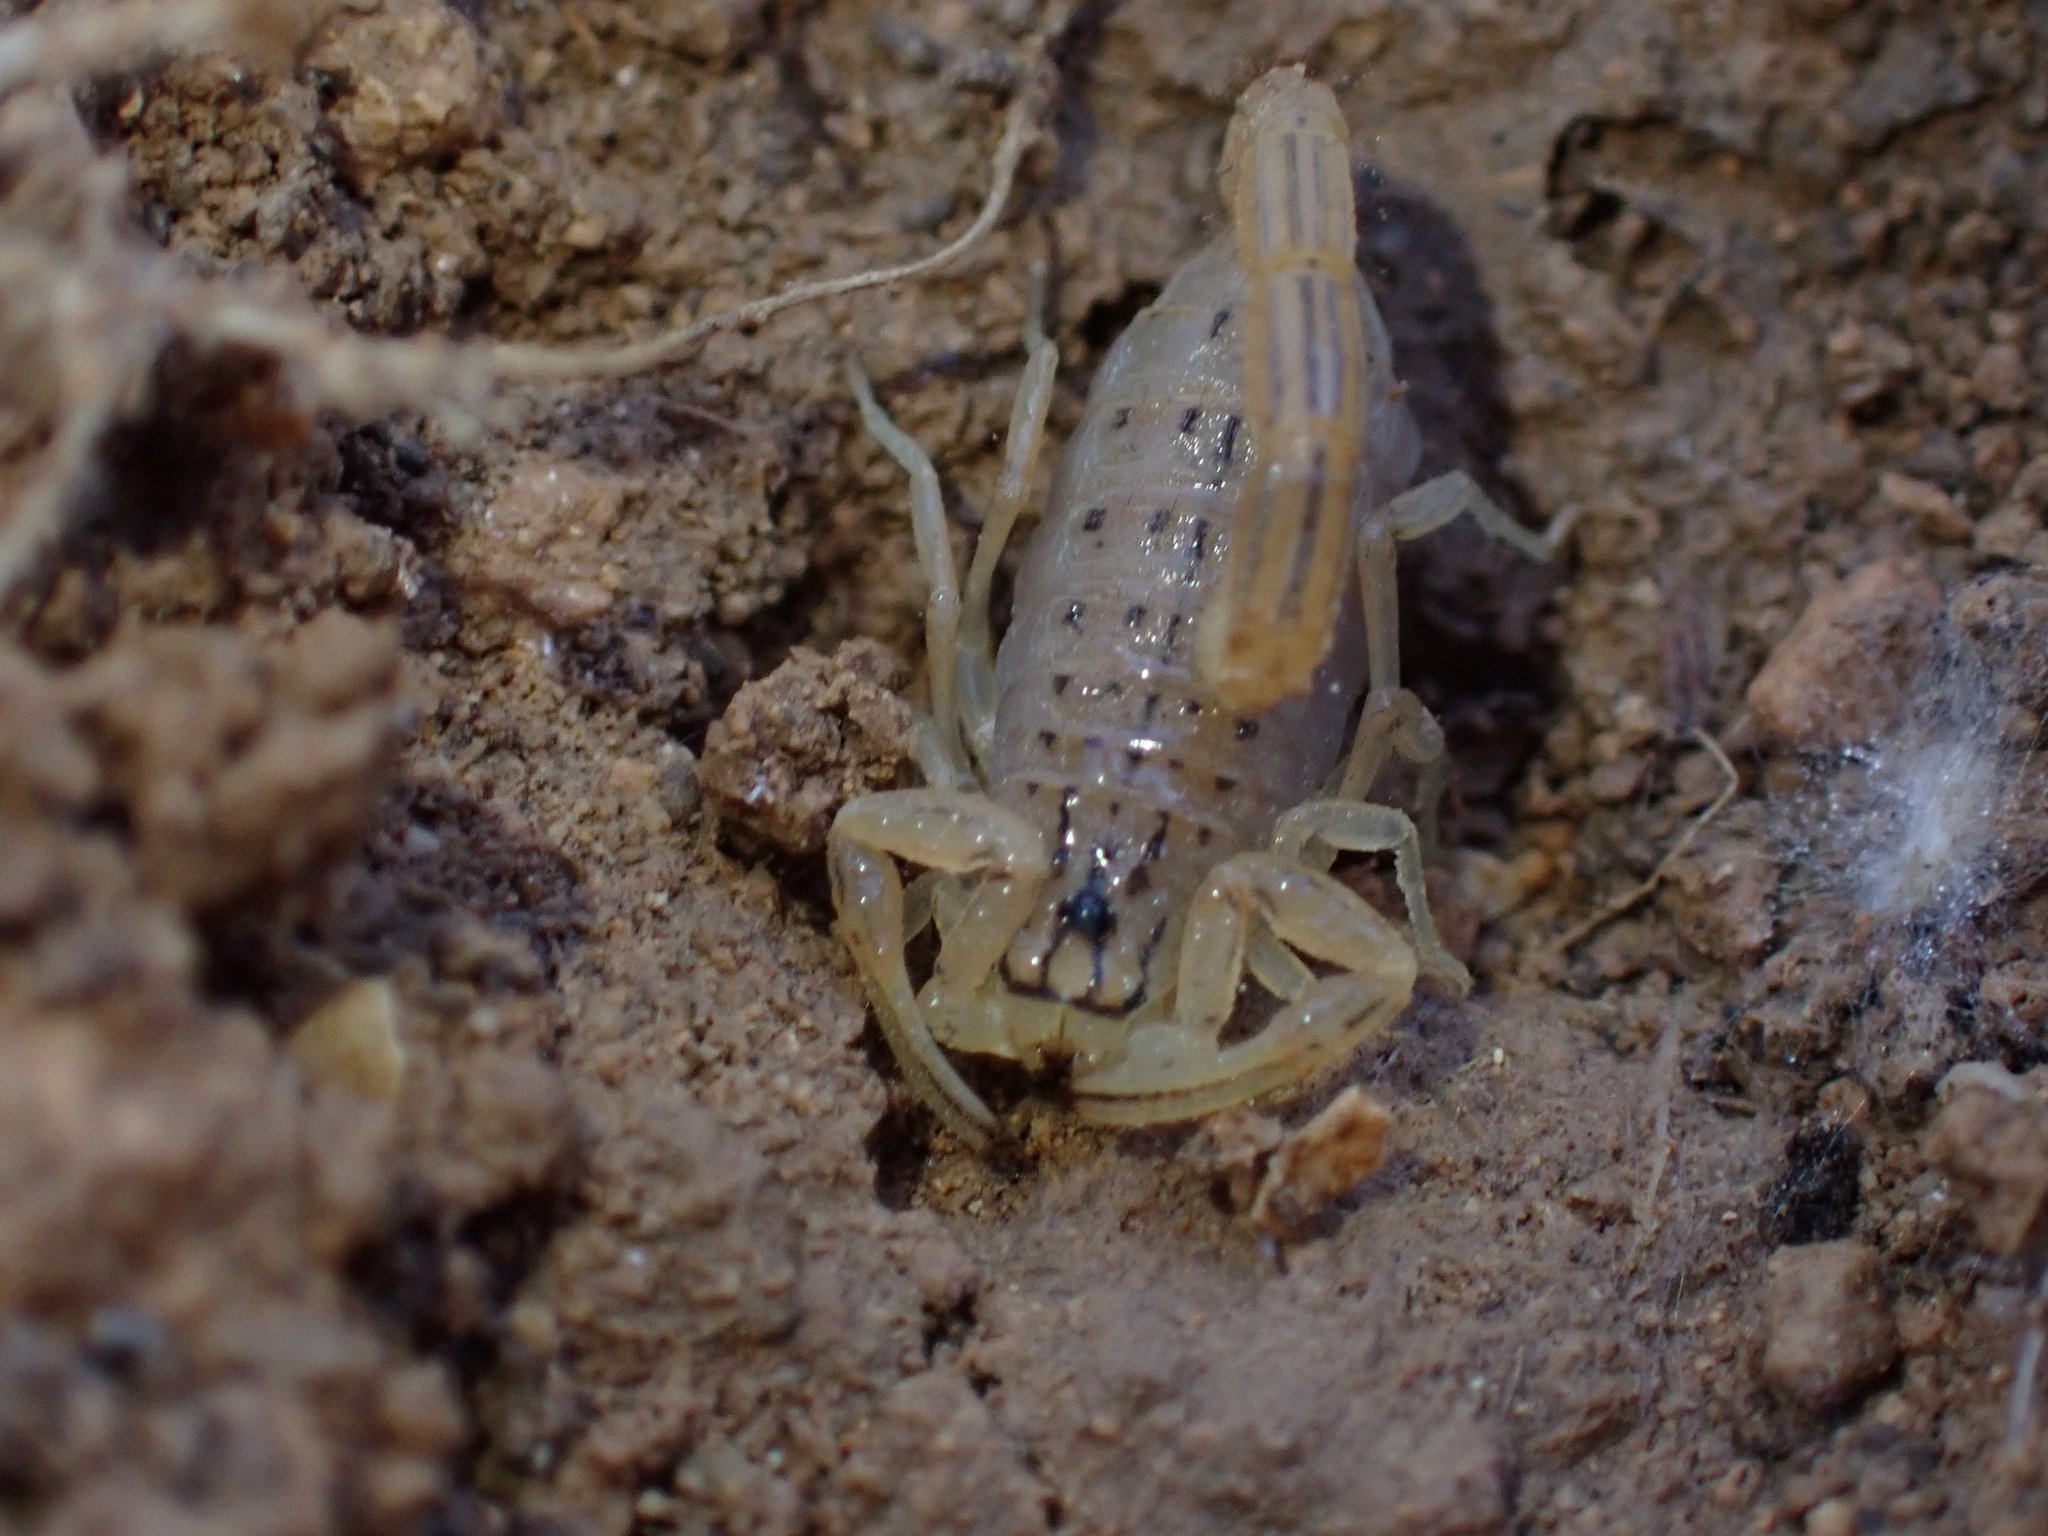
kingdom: Animalia
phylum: Arthropoda
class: Arachnida
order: Scorpiones
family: Buthidae
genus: Mesobuthus
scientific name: Mesobuthus phillipsi
